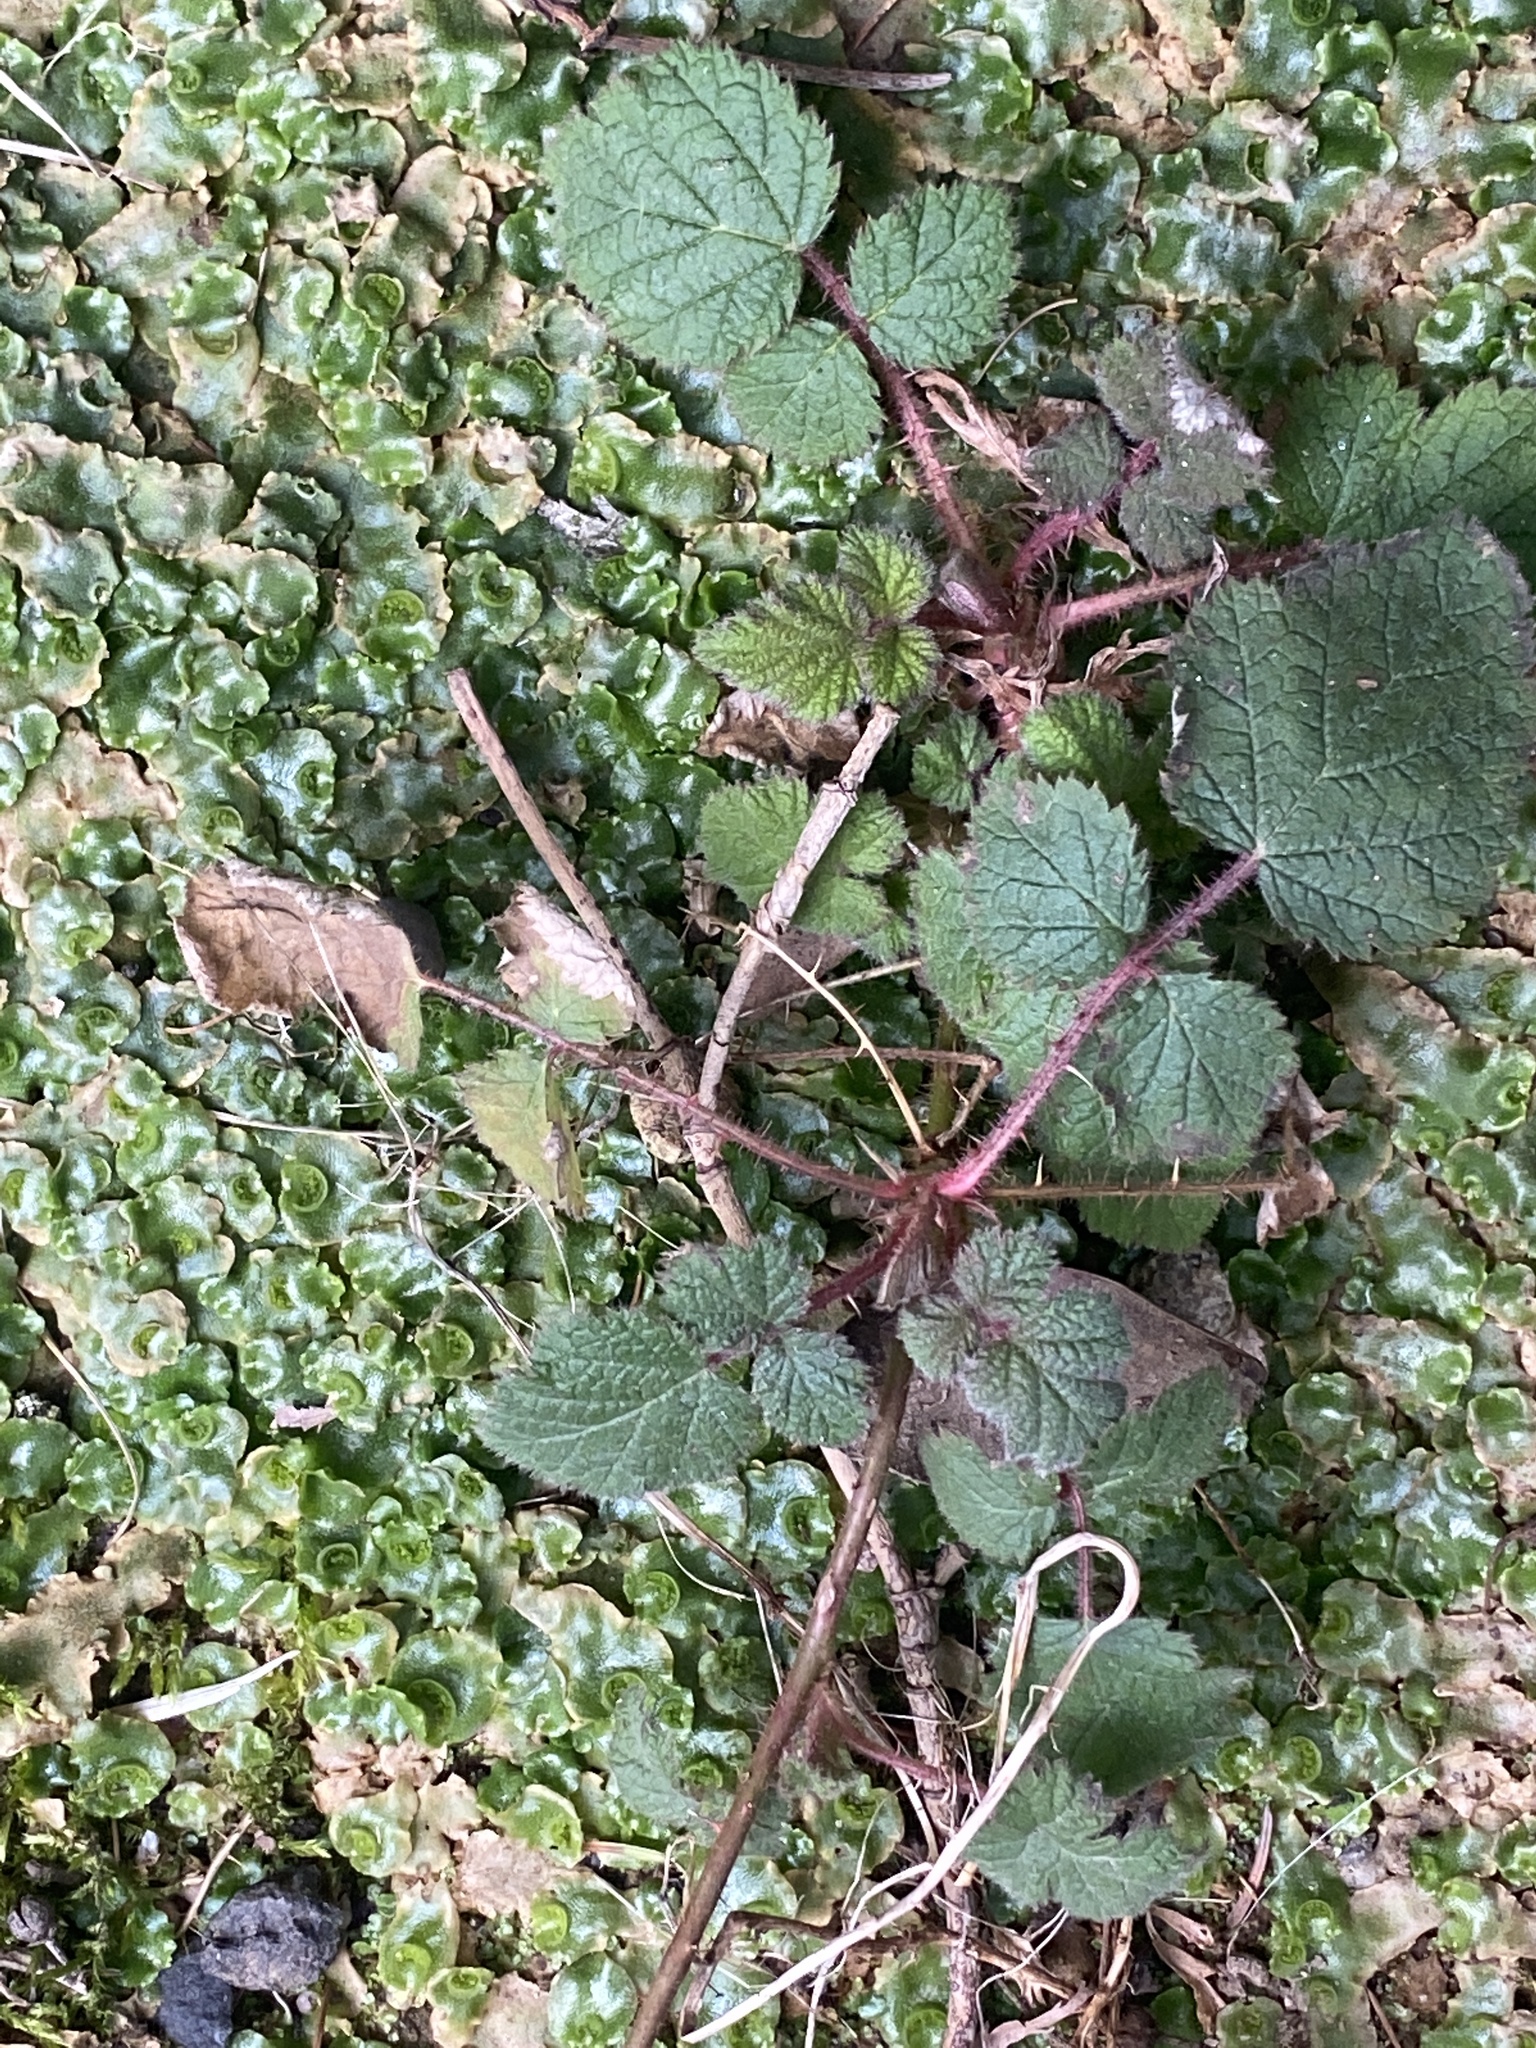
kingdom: Plantae
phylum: Tracheophyta
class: Magnoliopsida
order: Rosales
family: Rosaceae
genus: Rubus
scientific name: Rubus phoenicolasius
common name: Japanese wineberry
